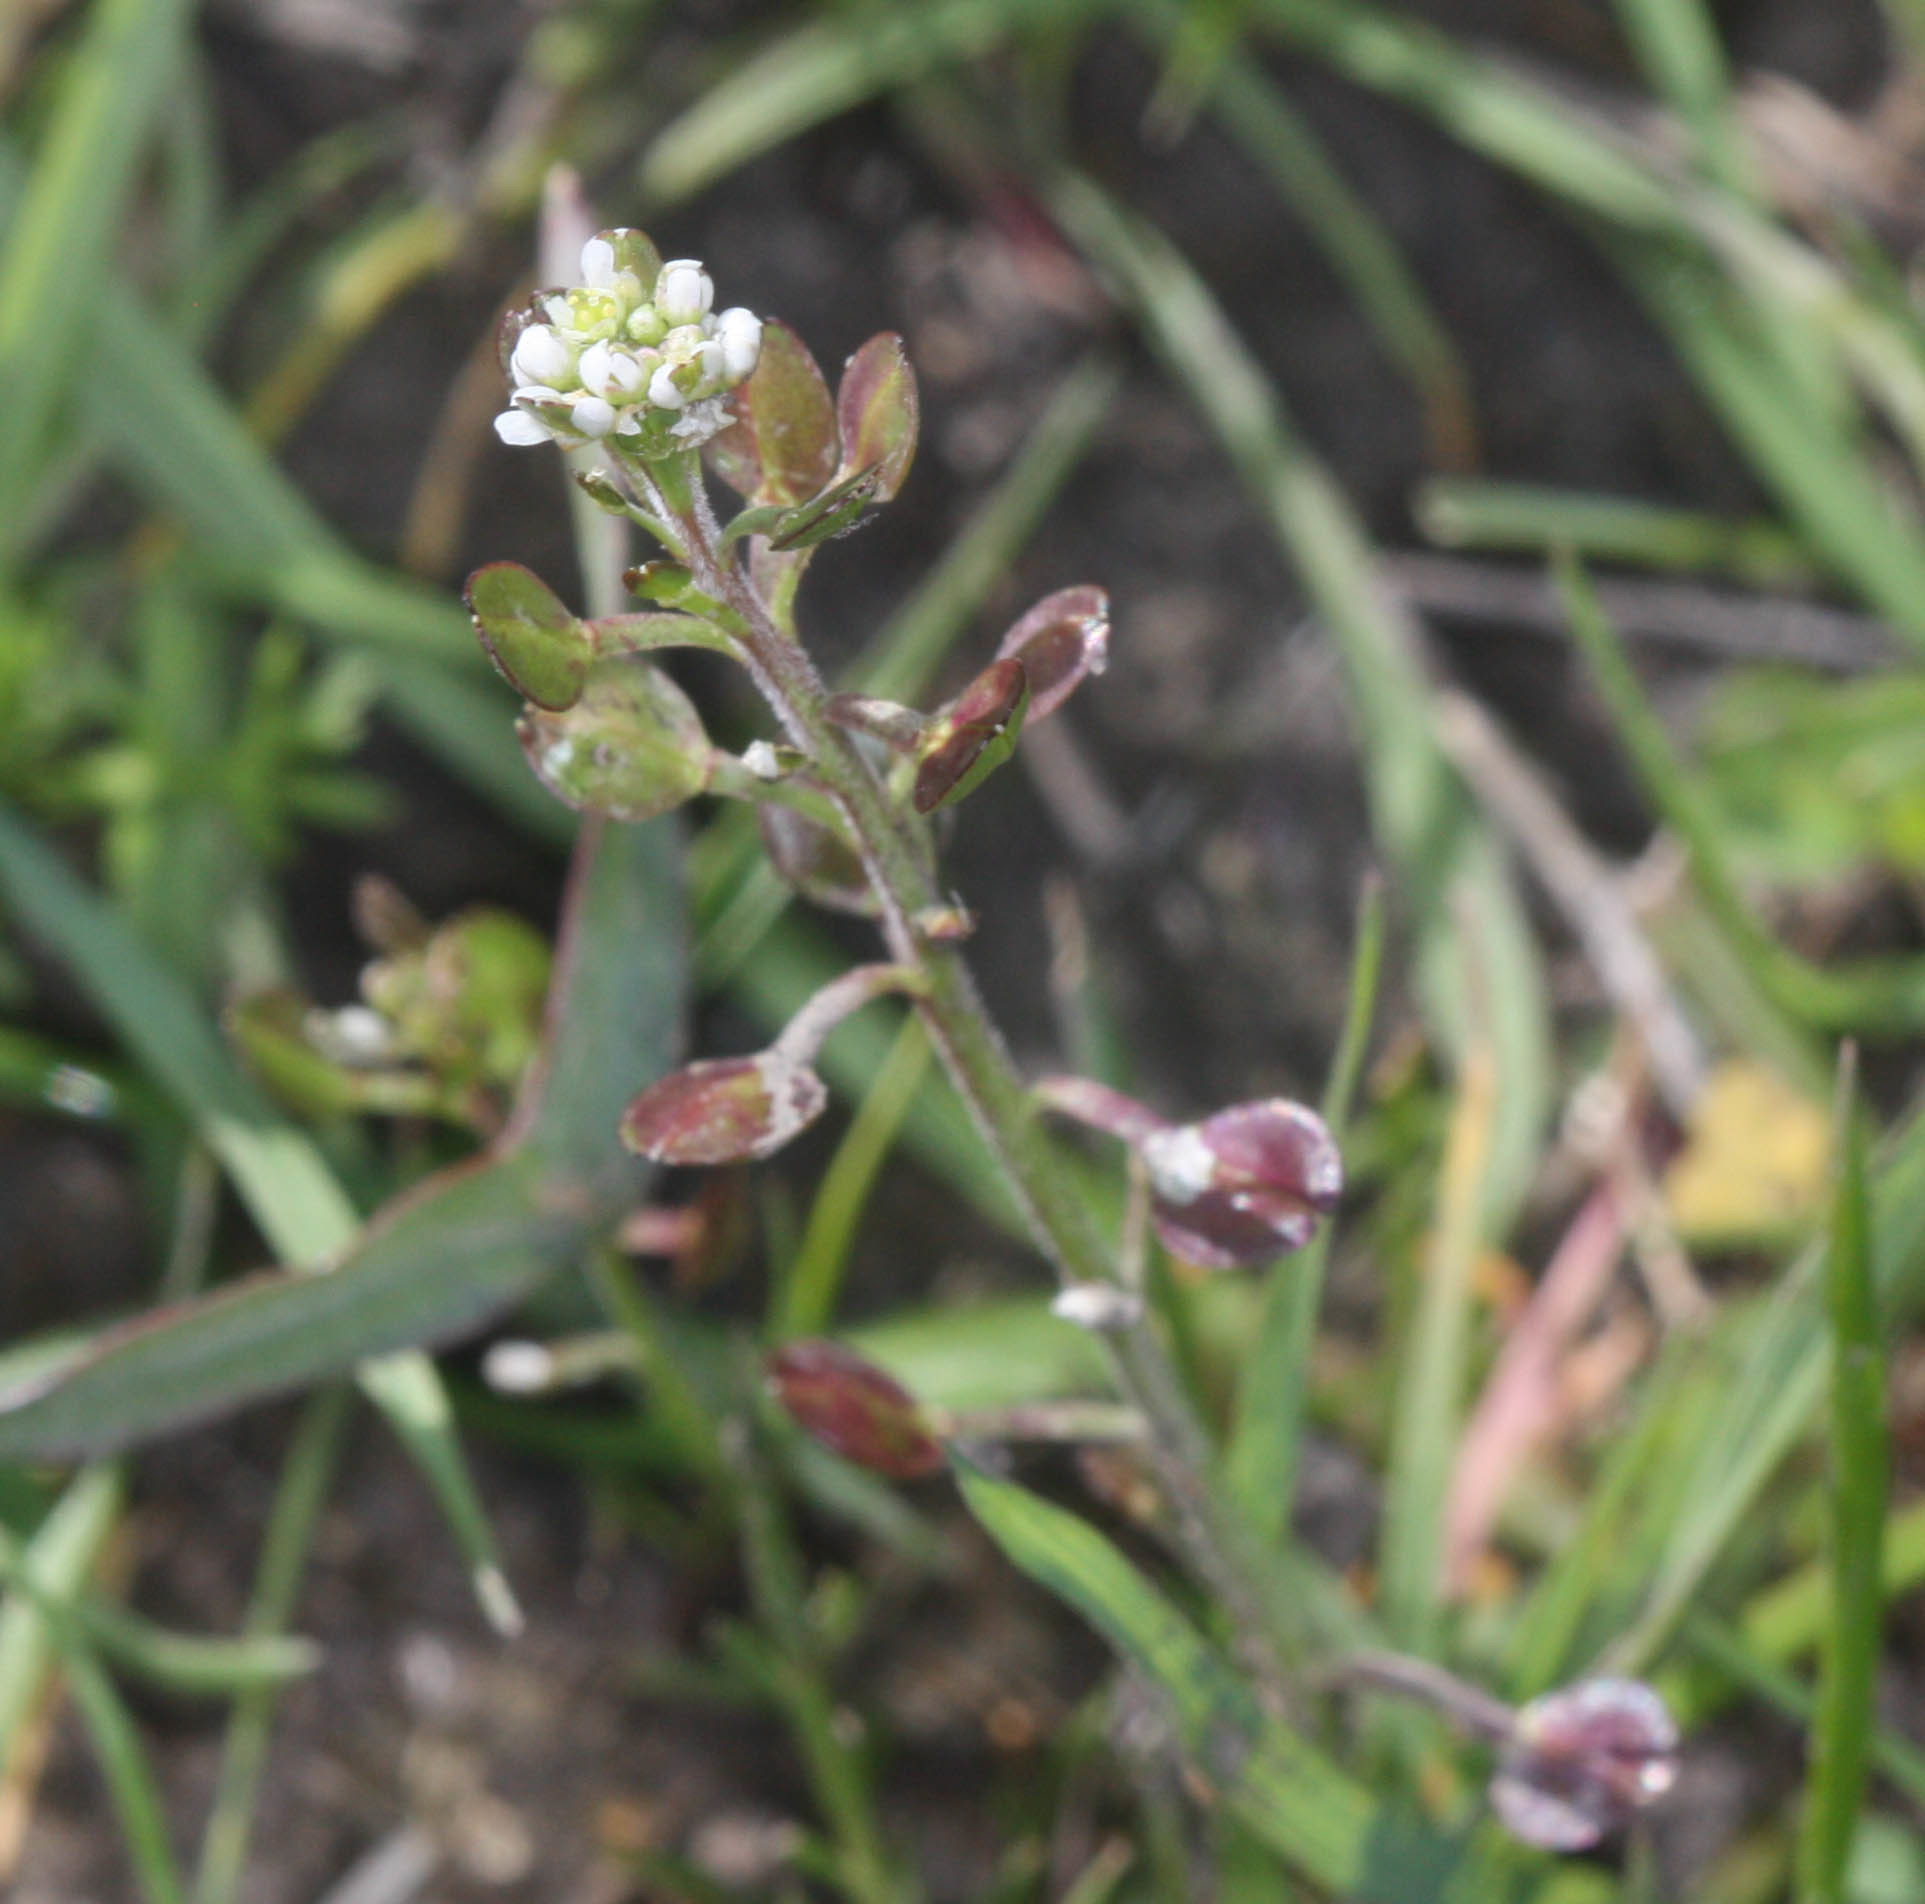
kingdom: Plantae
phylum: Tracheophyta
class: Magnoliopsida
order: Brassicales
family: Brassicaceae
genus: Lepidium
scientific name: Lepidium nitidum
